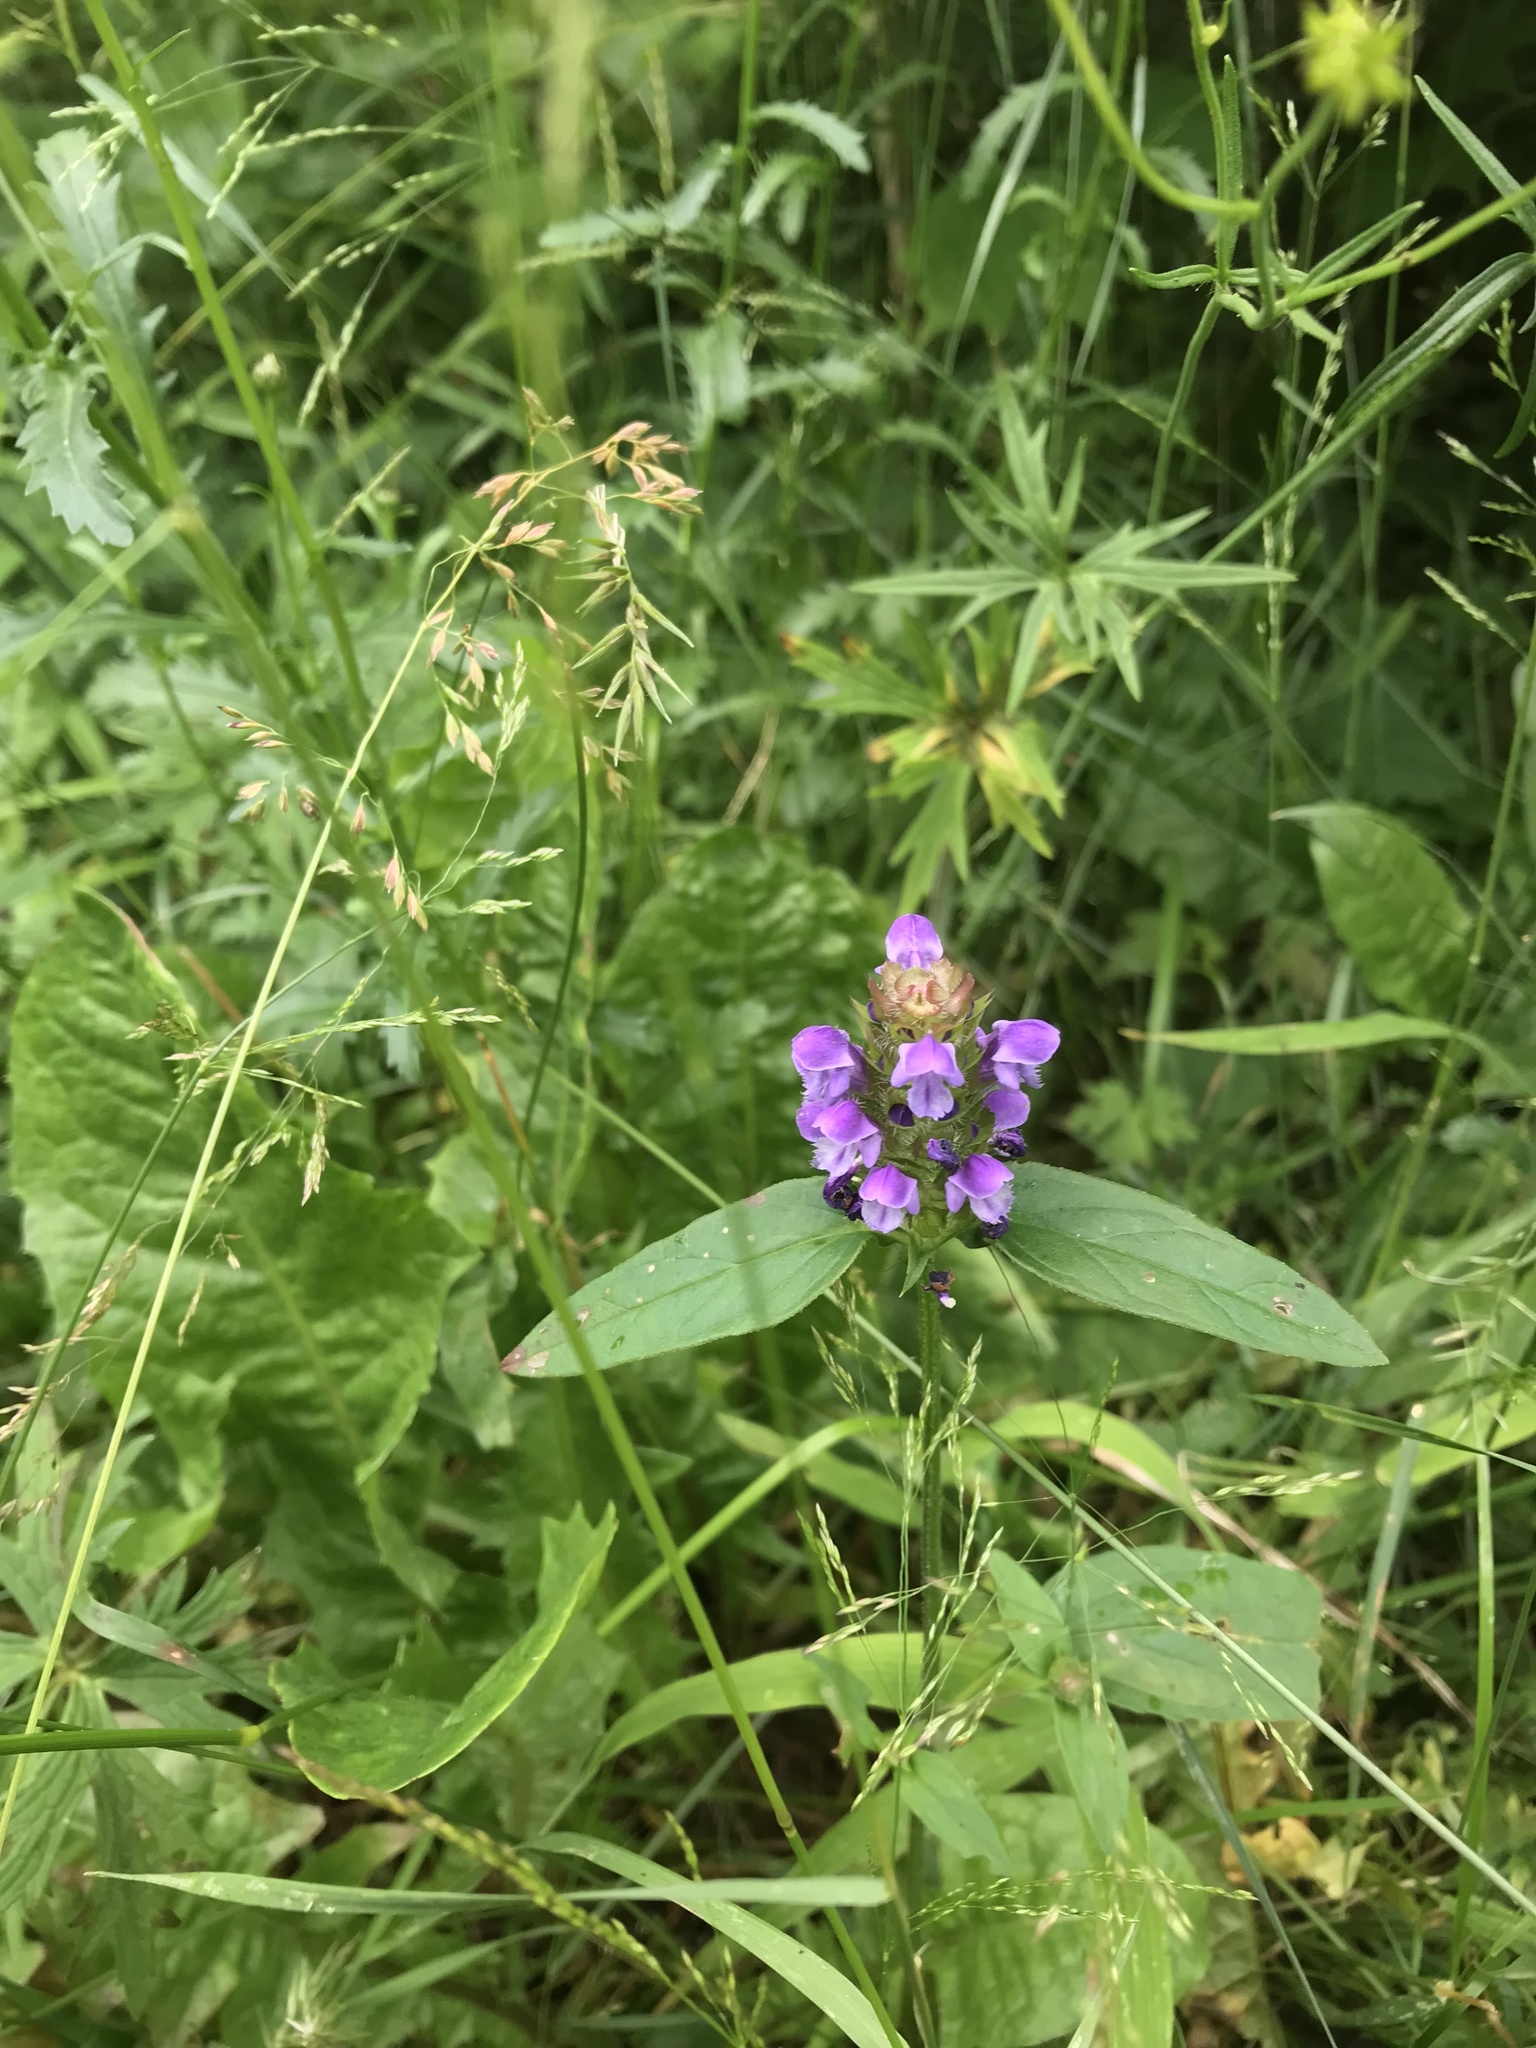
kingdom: Plantae
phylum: Tracheophyta
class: Magnoliopsida
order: Lamiales
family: Lamiaceae
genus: Prunella
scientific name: Prunella vulgaris
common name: Heal-all
